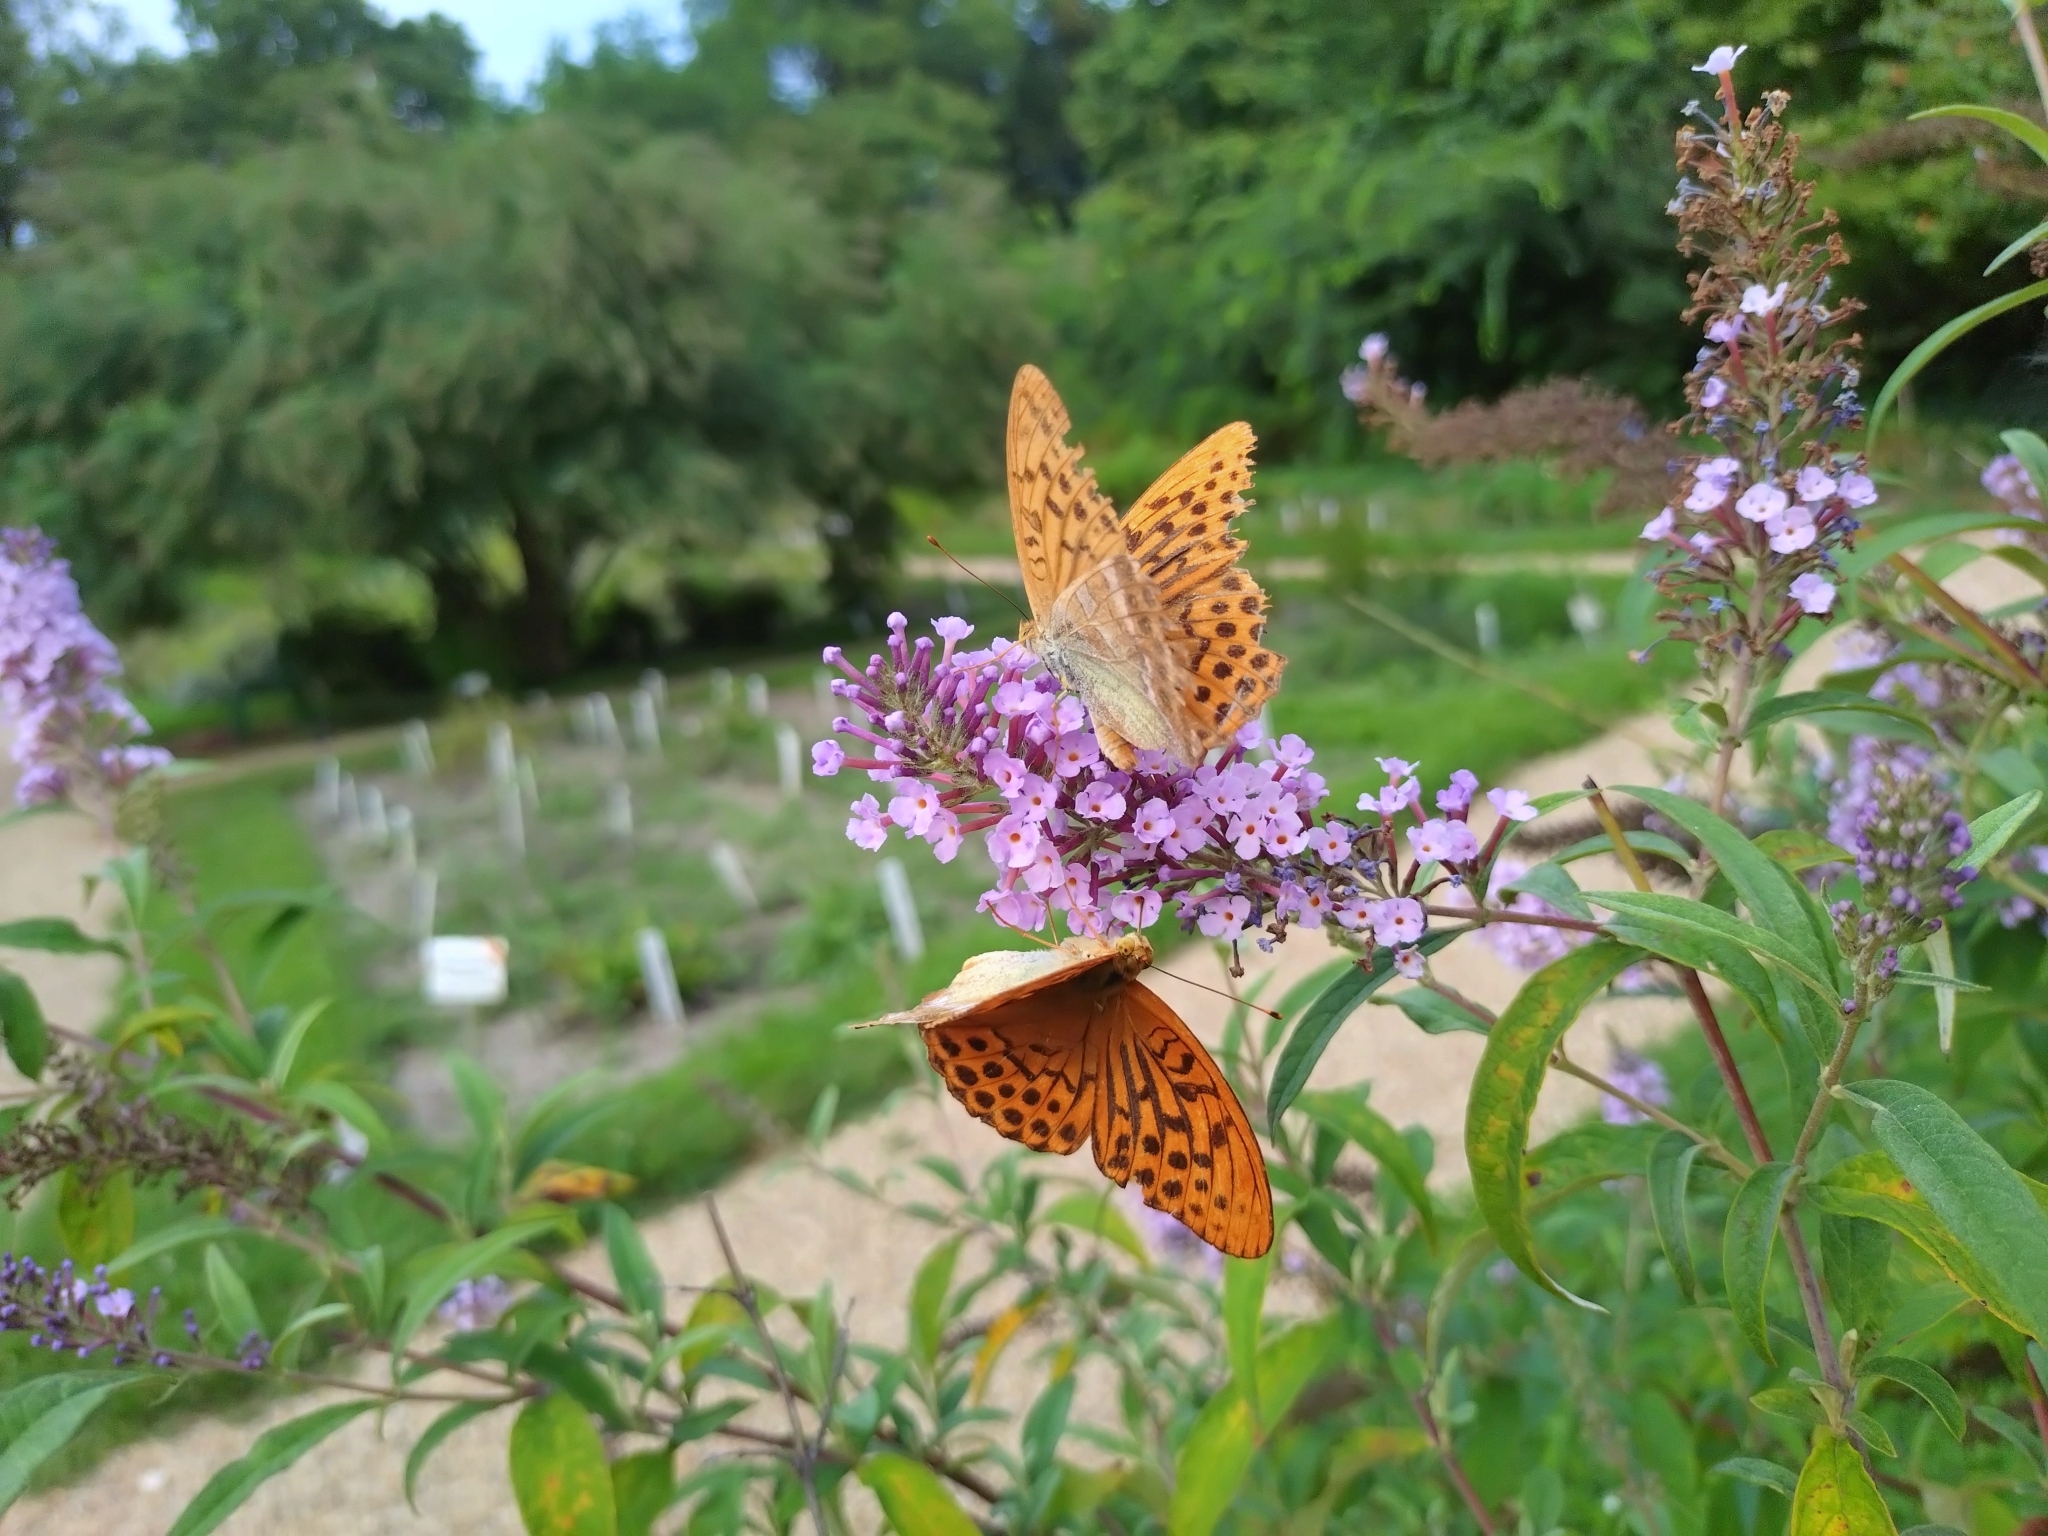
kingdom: Animalia
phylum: Arthropoda
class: Insecta
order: Lepidoptera
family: Nymphalidae
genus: Argynnis
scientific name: Argynnis paphia
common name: Silver-washed fritillary
